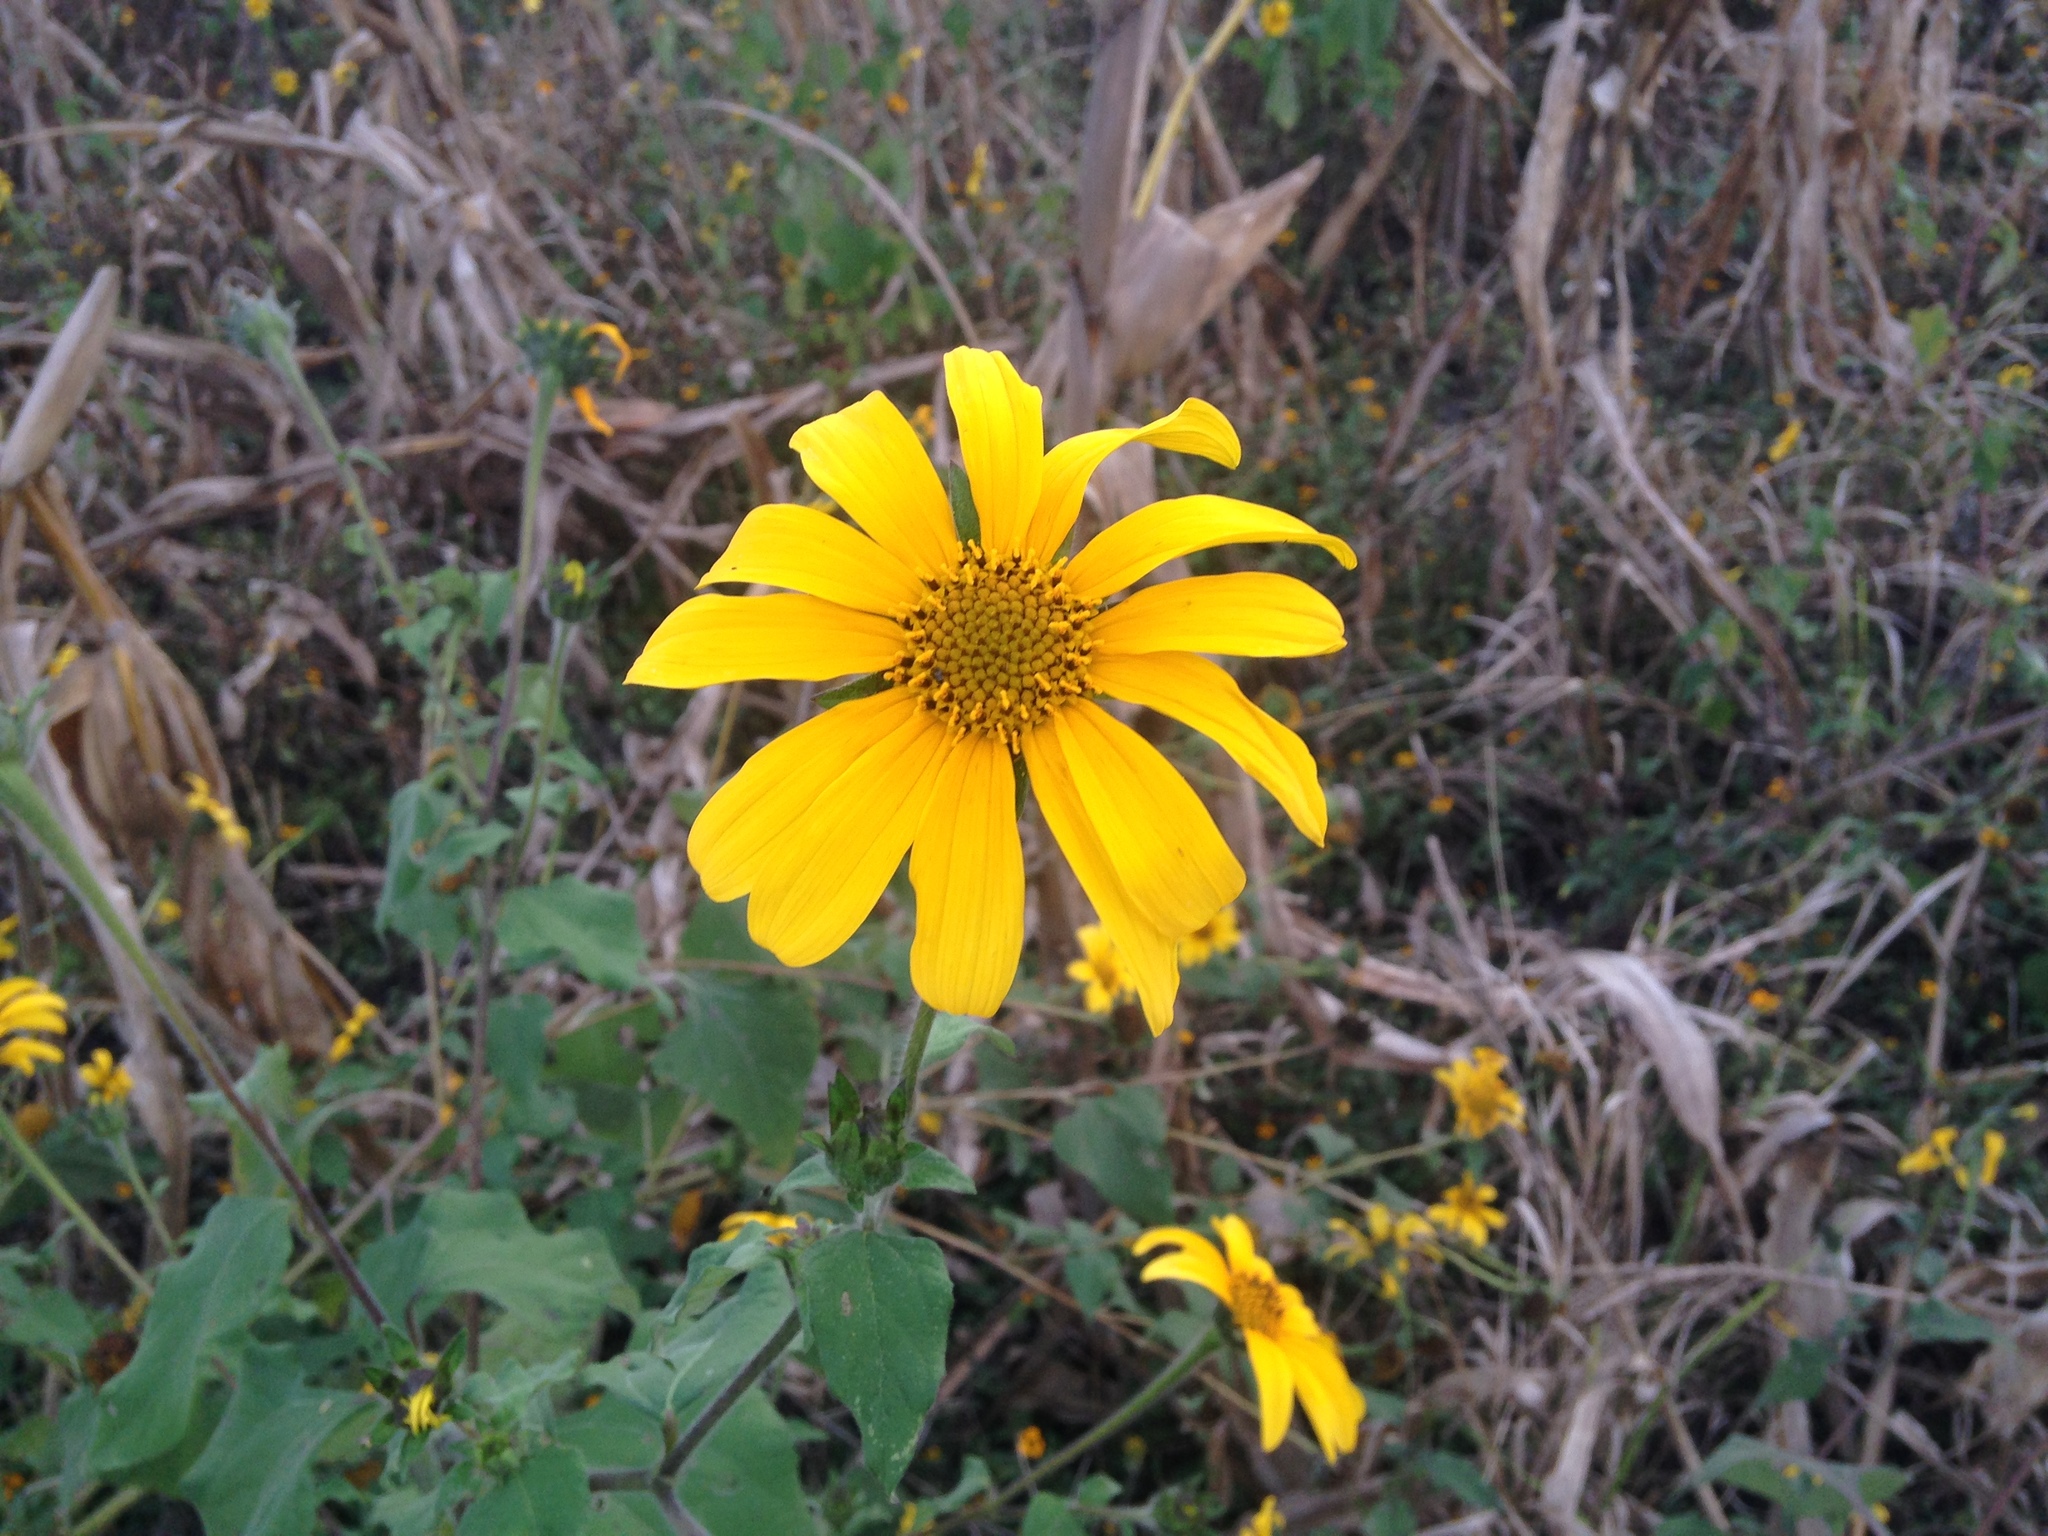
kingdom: Plantae
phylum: Tracheophyta
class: Magnoliopsida
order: Asterales
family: Asteraceae
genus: Tithonia
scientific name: Tithonia tubaeformis
